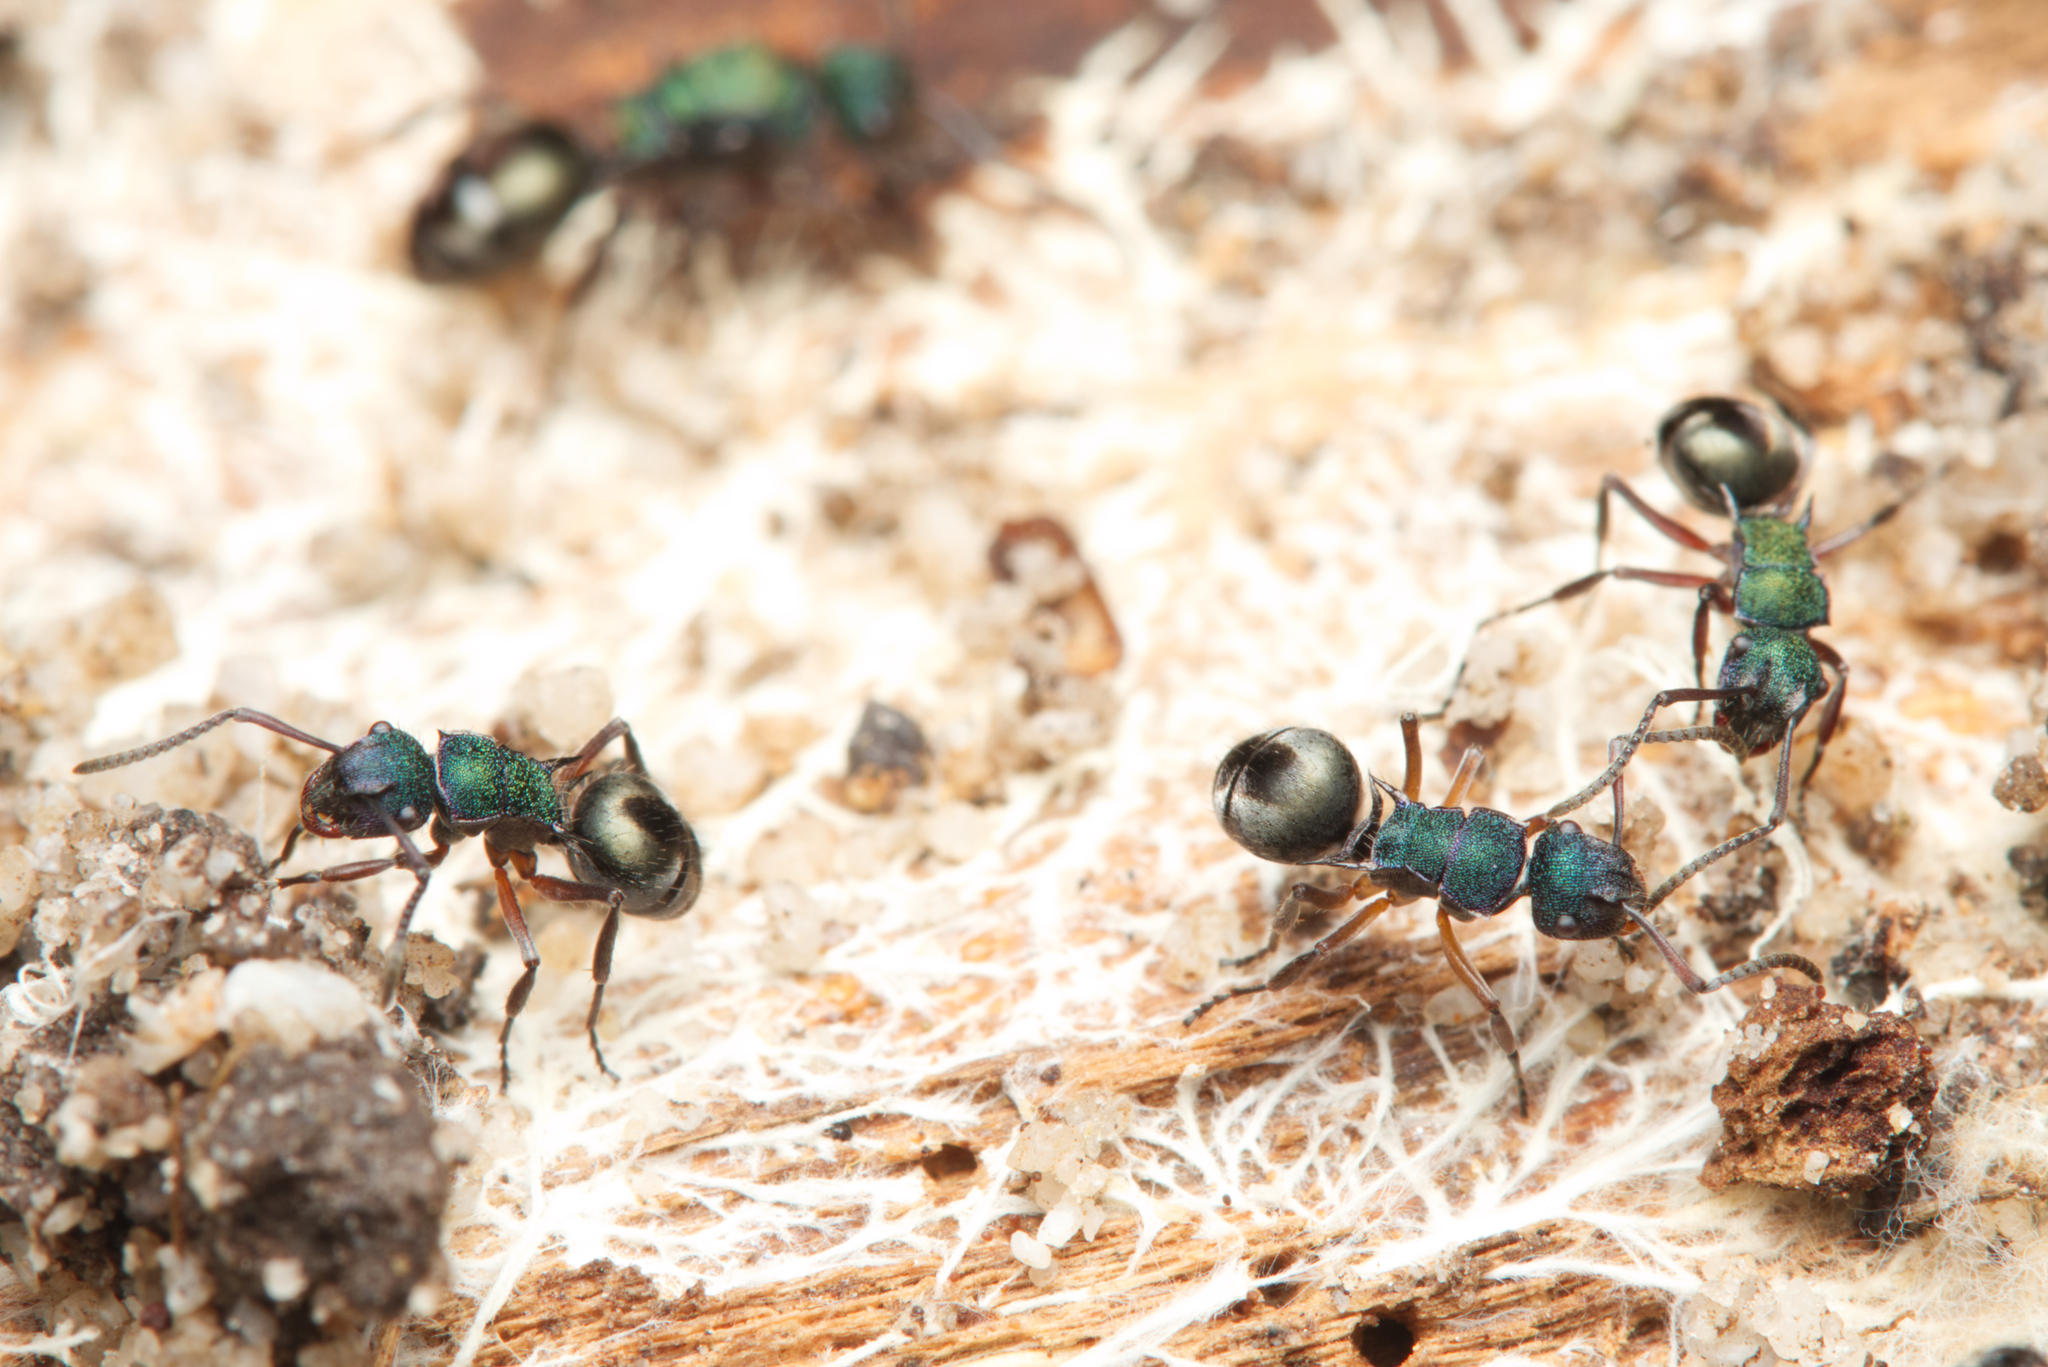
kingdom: Animalia
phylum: Arthropoda
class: Insecta
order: Hymenoptera
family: Formicidae
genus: Polyrhachis
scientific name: Polyrhachis hookeri
